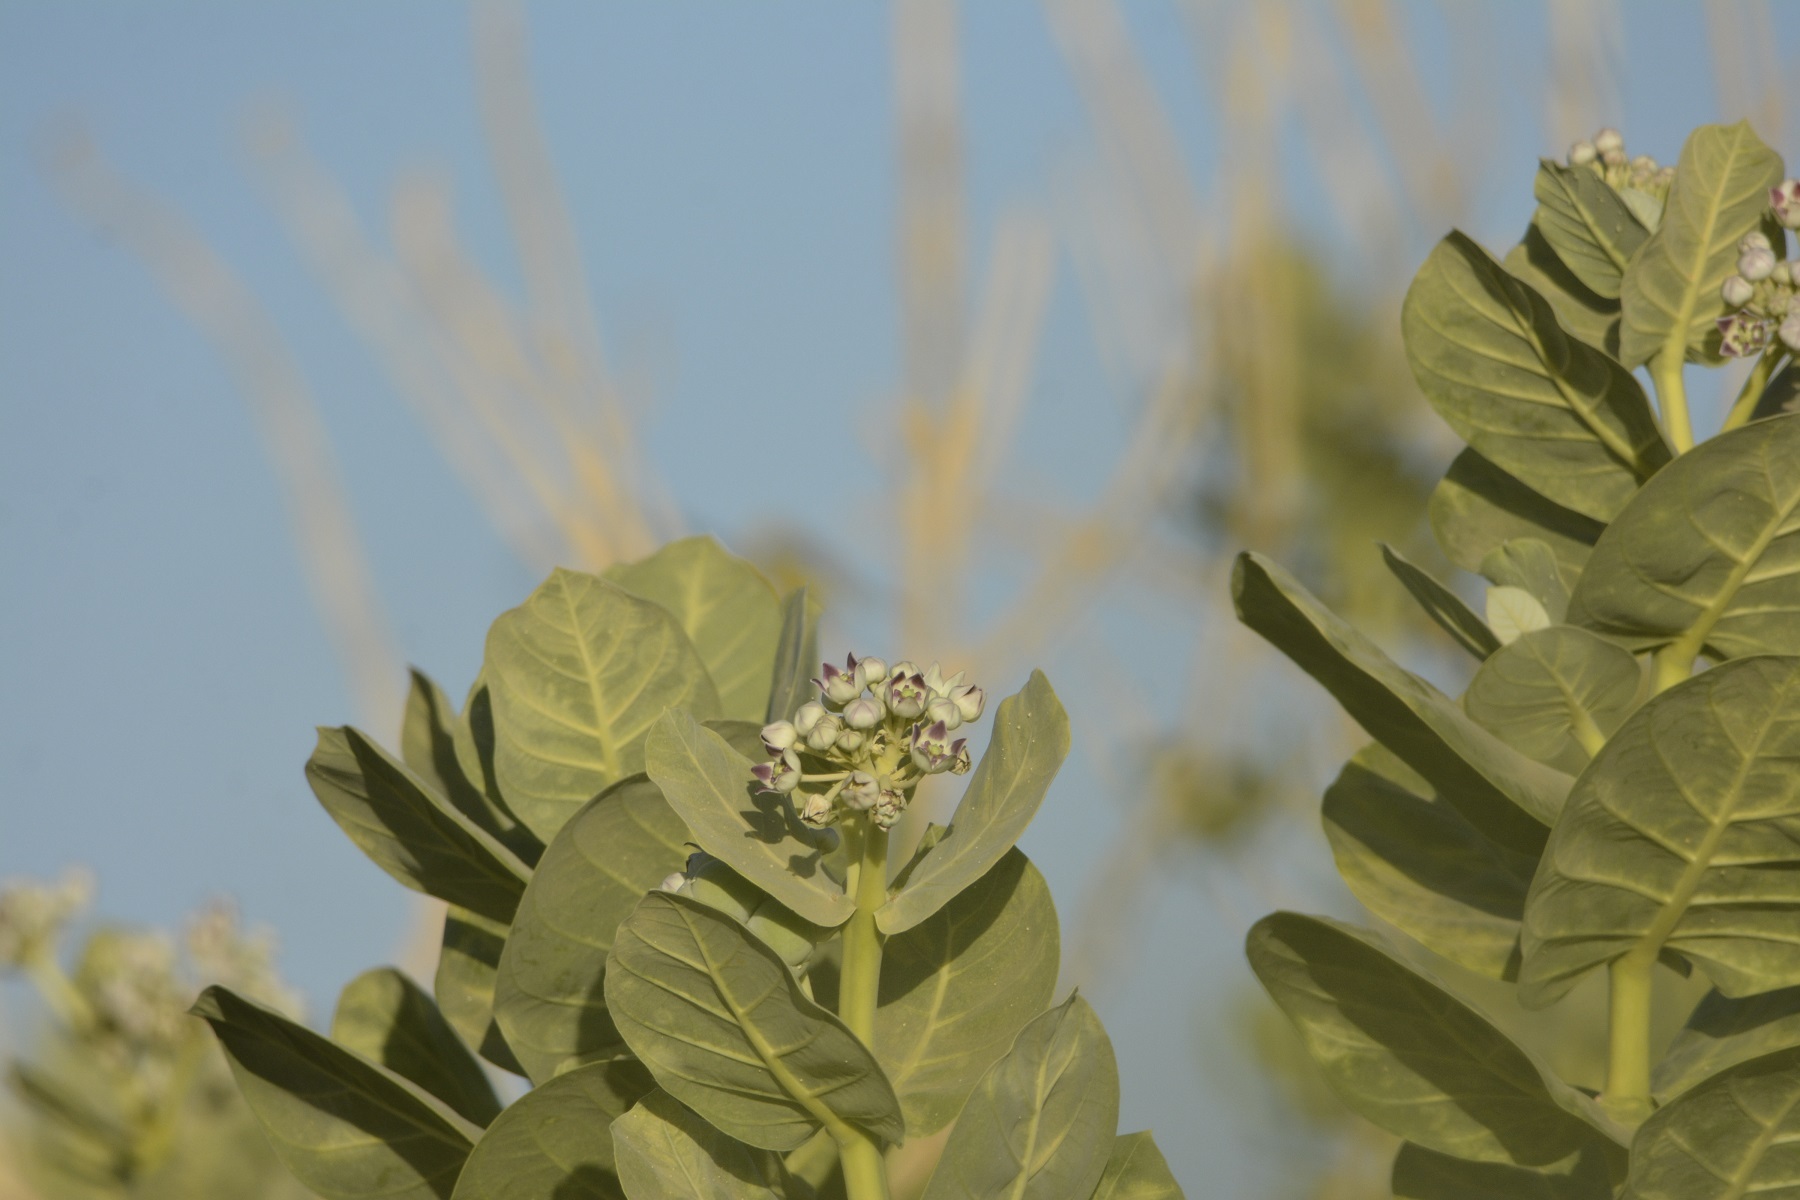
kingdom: Plantae
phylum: Tracheophyta
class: Magnoliopsida
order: Gentianales
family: Apocynaceae
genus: Calotropis
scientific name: Calotropis procera
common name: Roostertree
